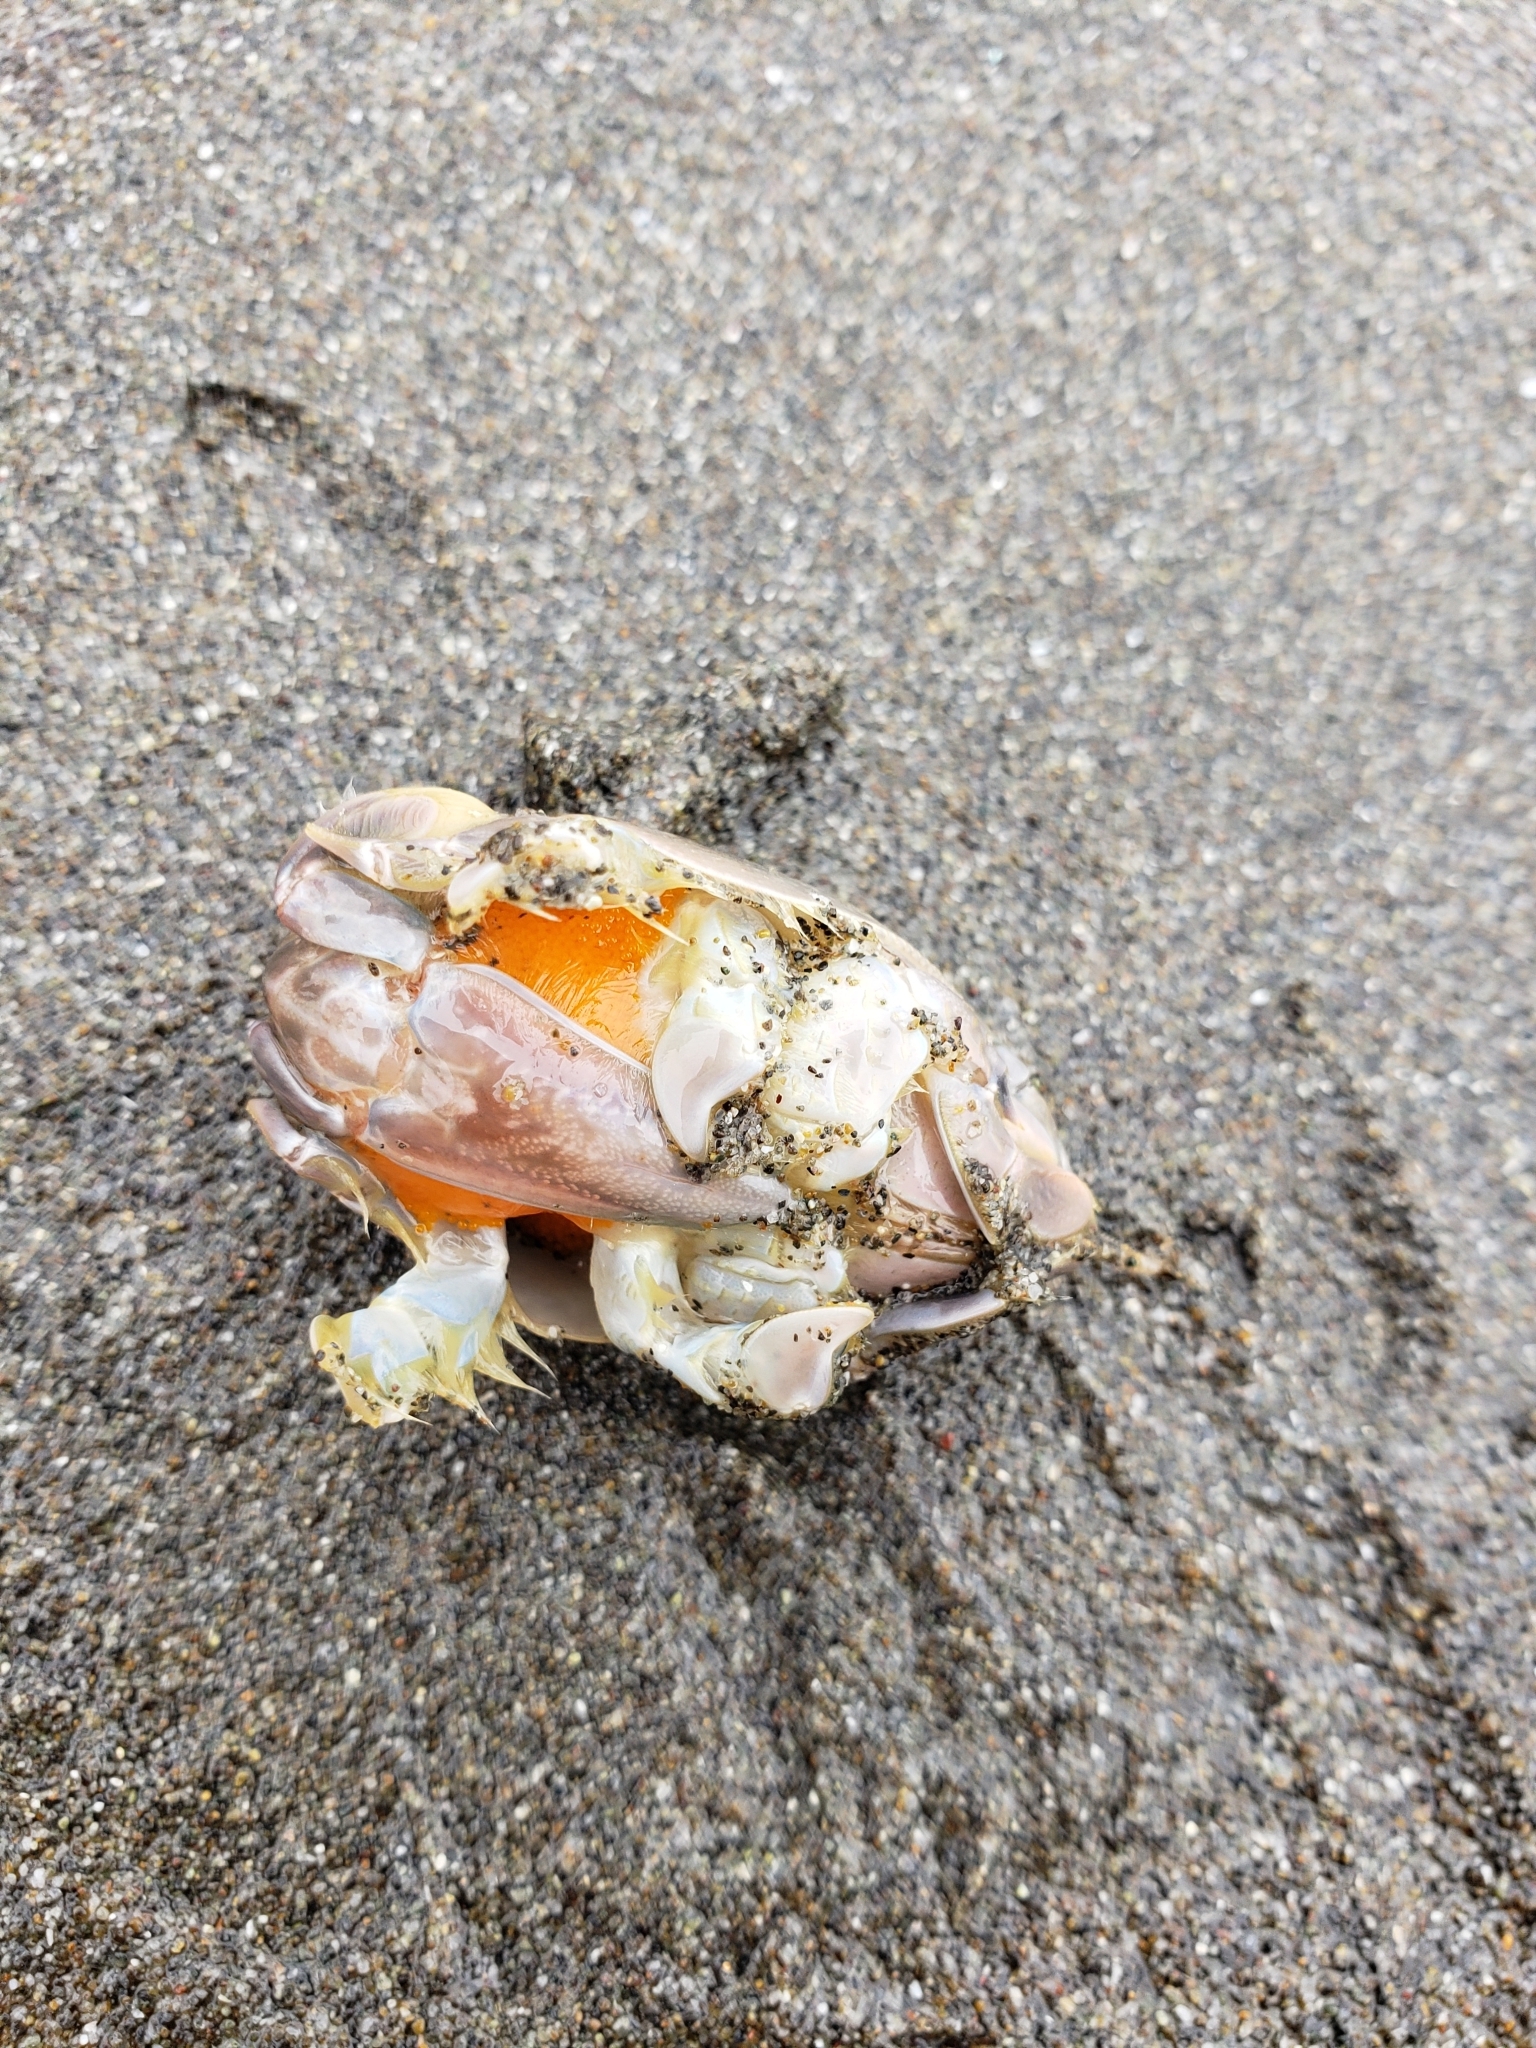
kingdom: Animalia
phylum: Arthropoda
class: Malacostraca
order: Decapoda
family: Hippidae
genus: Emerita
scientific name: Emerita analoga
